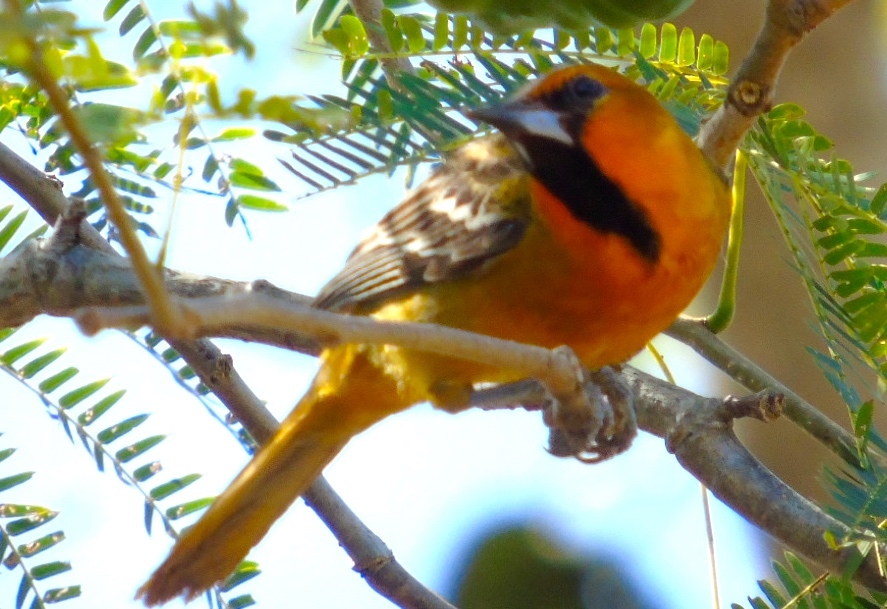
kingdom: Animalia
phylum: Chordata
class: Aves
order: Passeriformes
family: Icteridae
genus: Icterus
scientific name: Icterus pustulatus
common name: Streak-backed oriole
